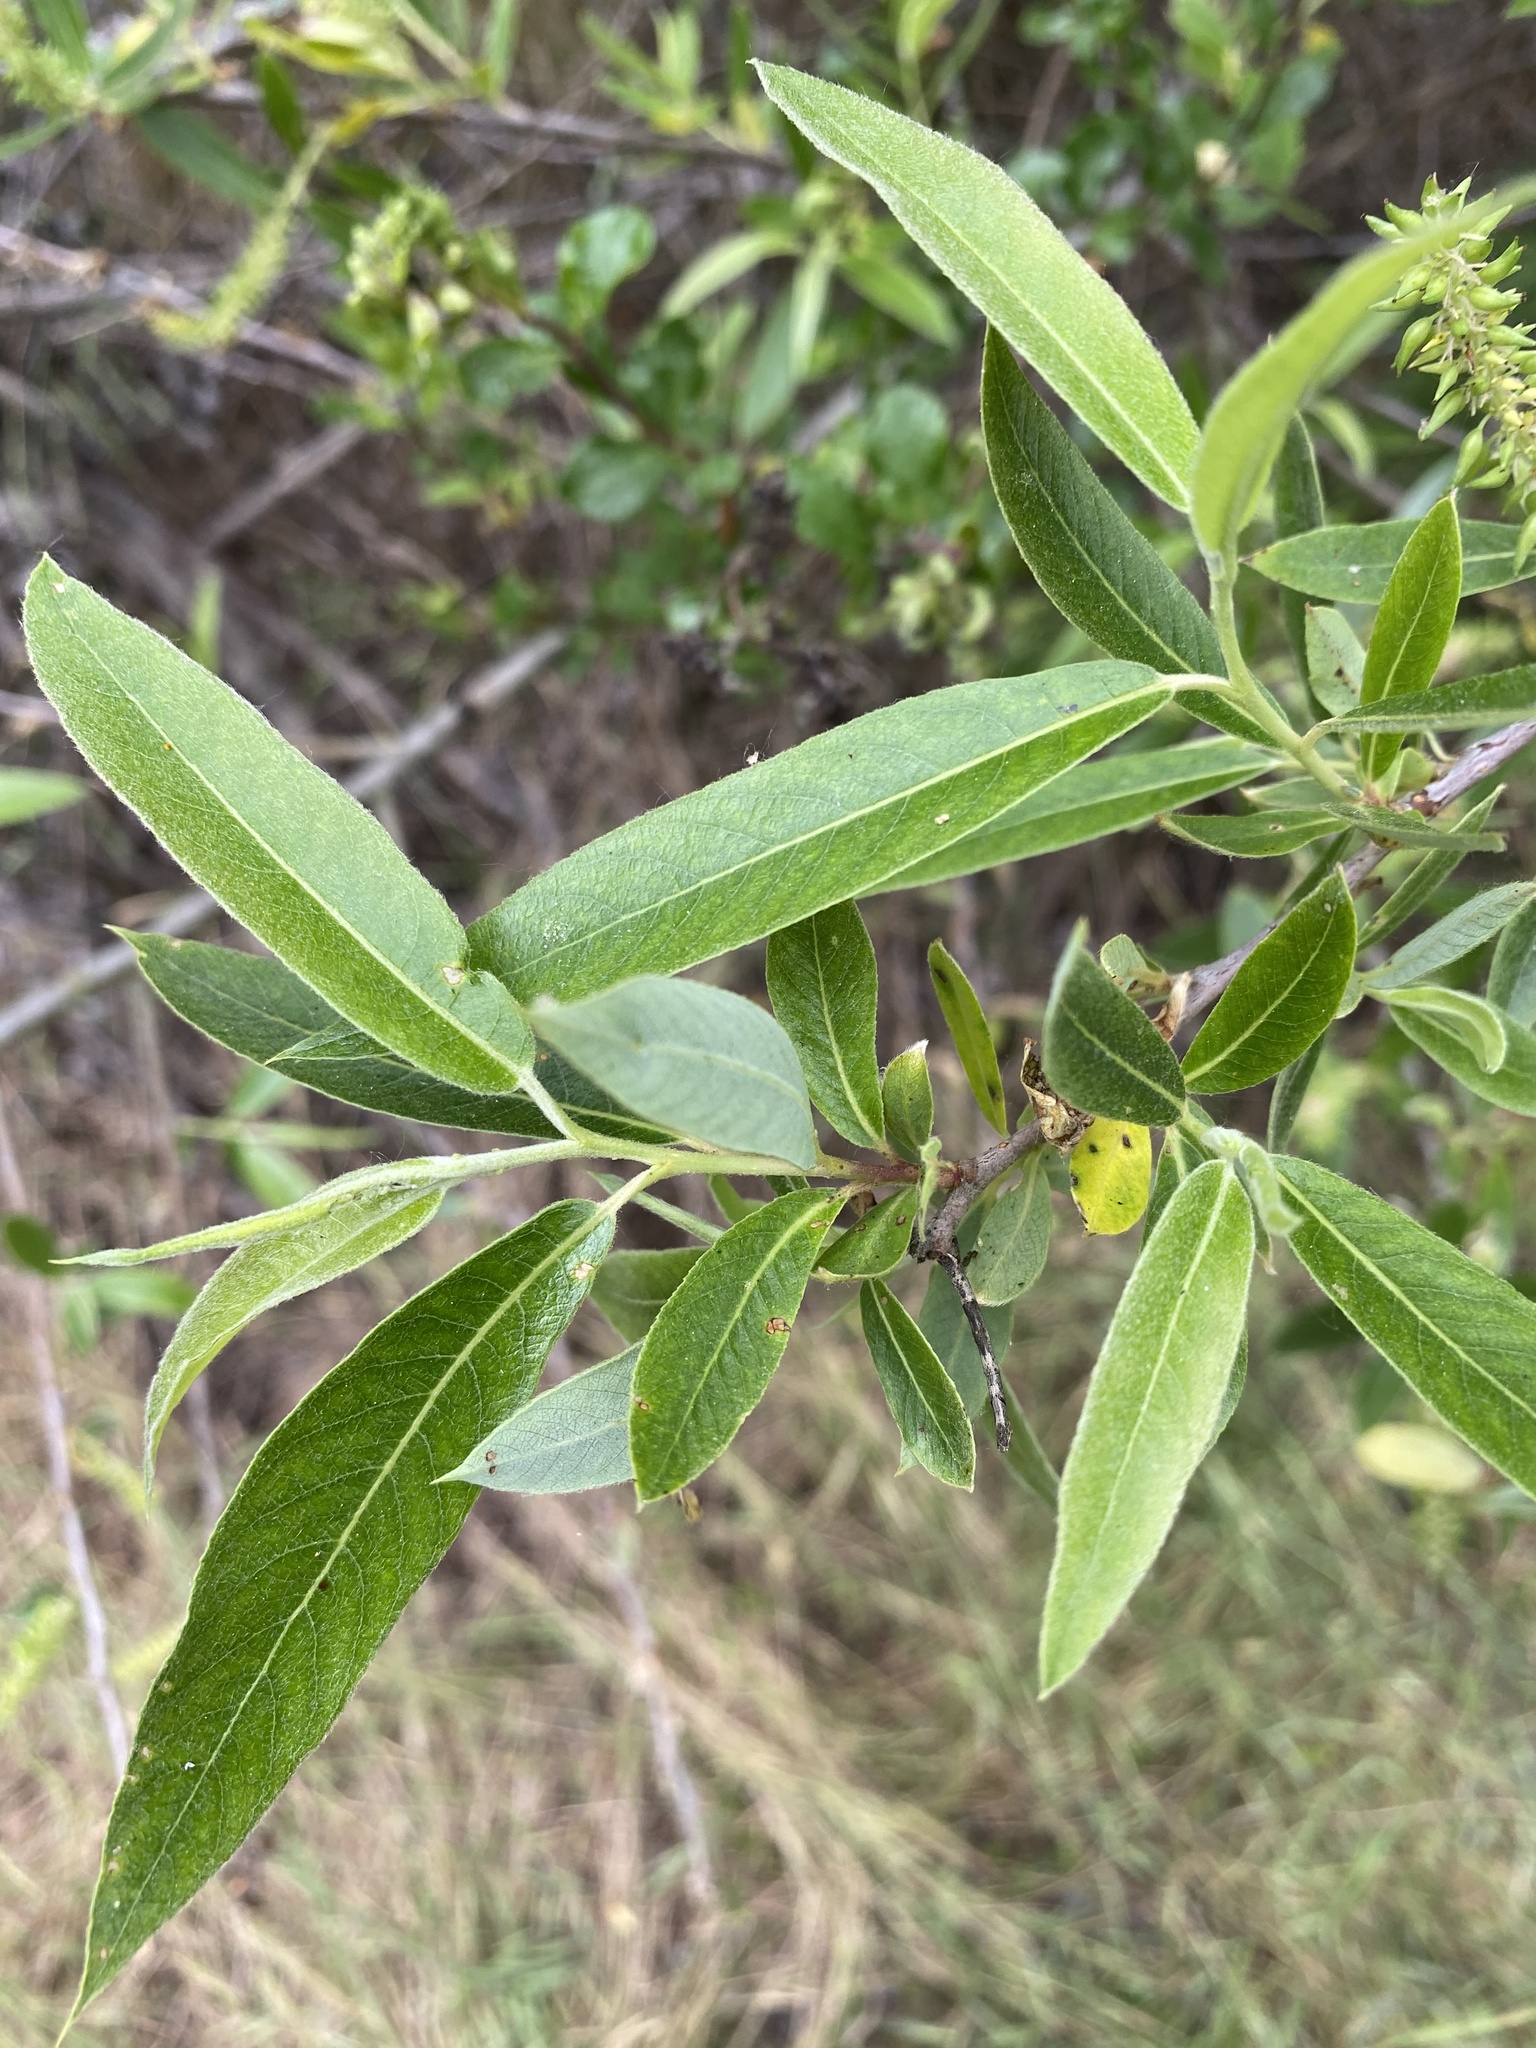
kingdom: Plantae
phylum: Tracheophyta
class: Magnoliopsida
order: Malpighiales
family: Salicaceae
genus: Salix
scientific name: Salix lasiolepis
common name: Arroyo willow
